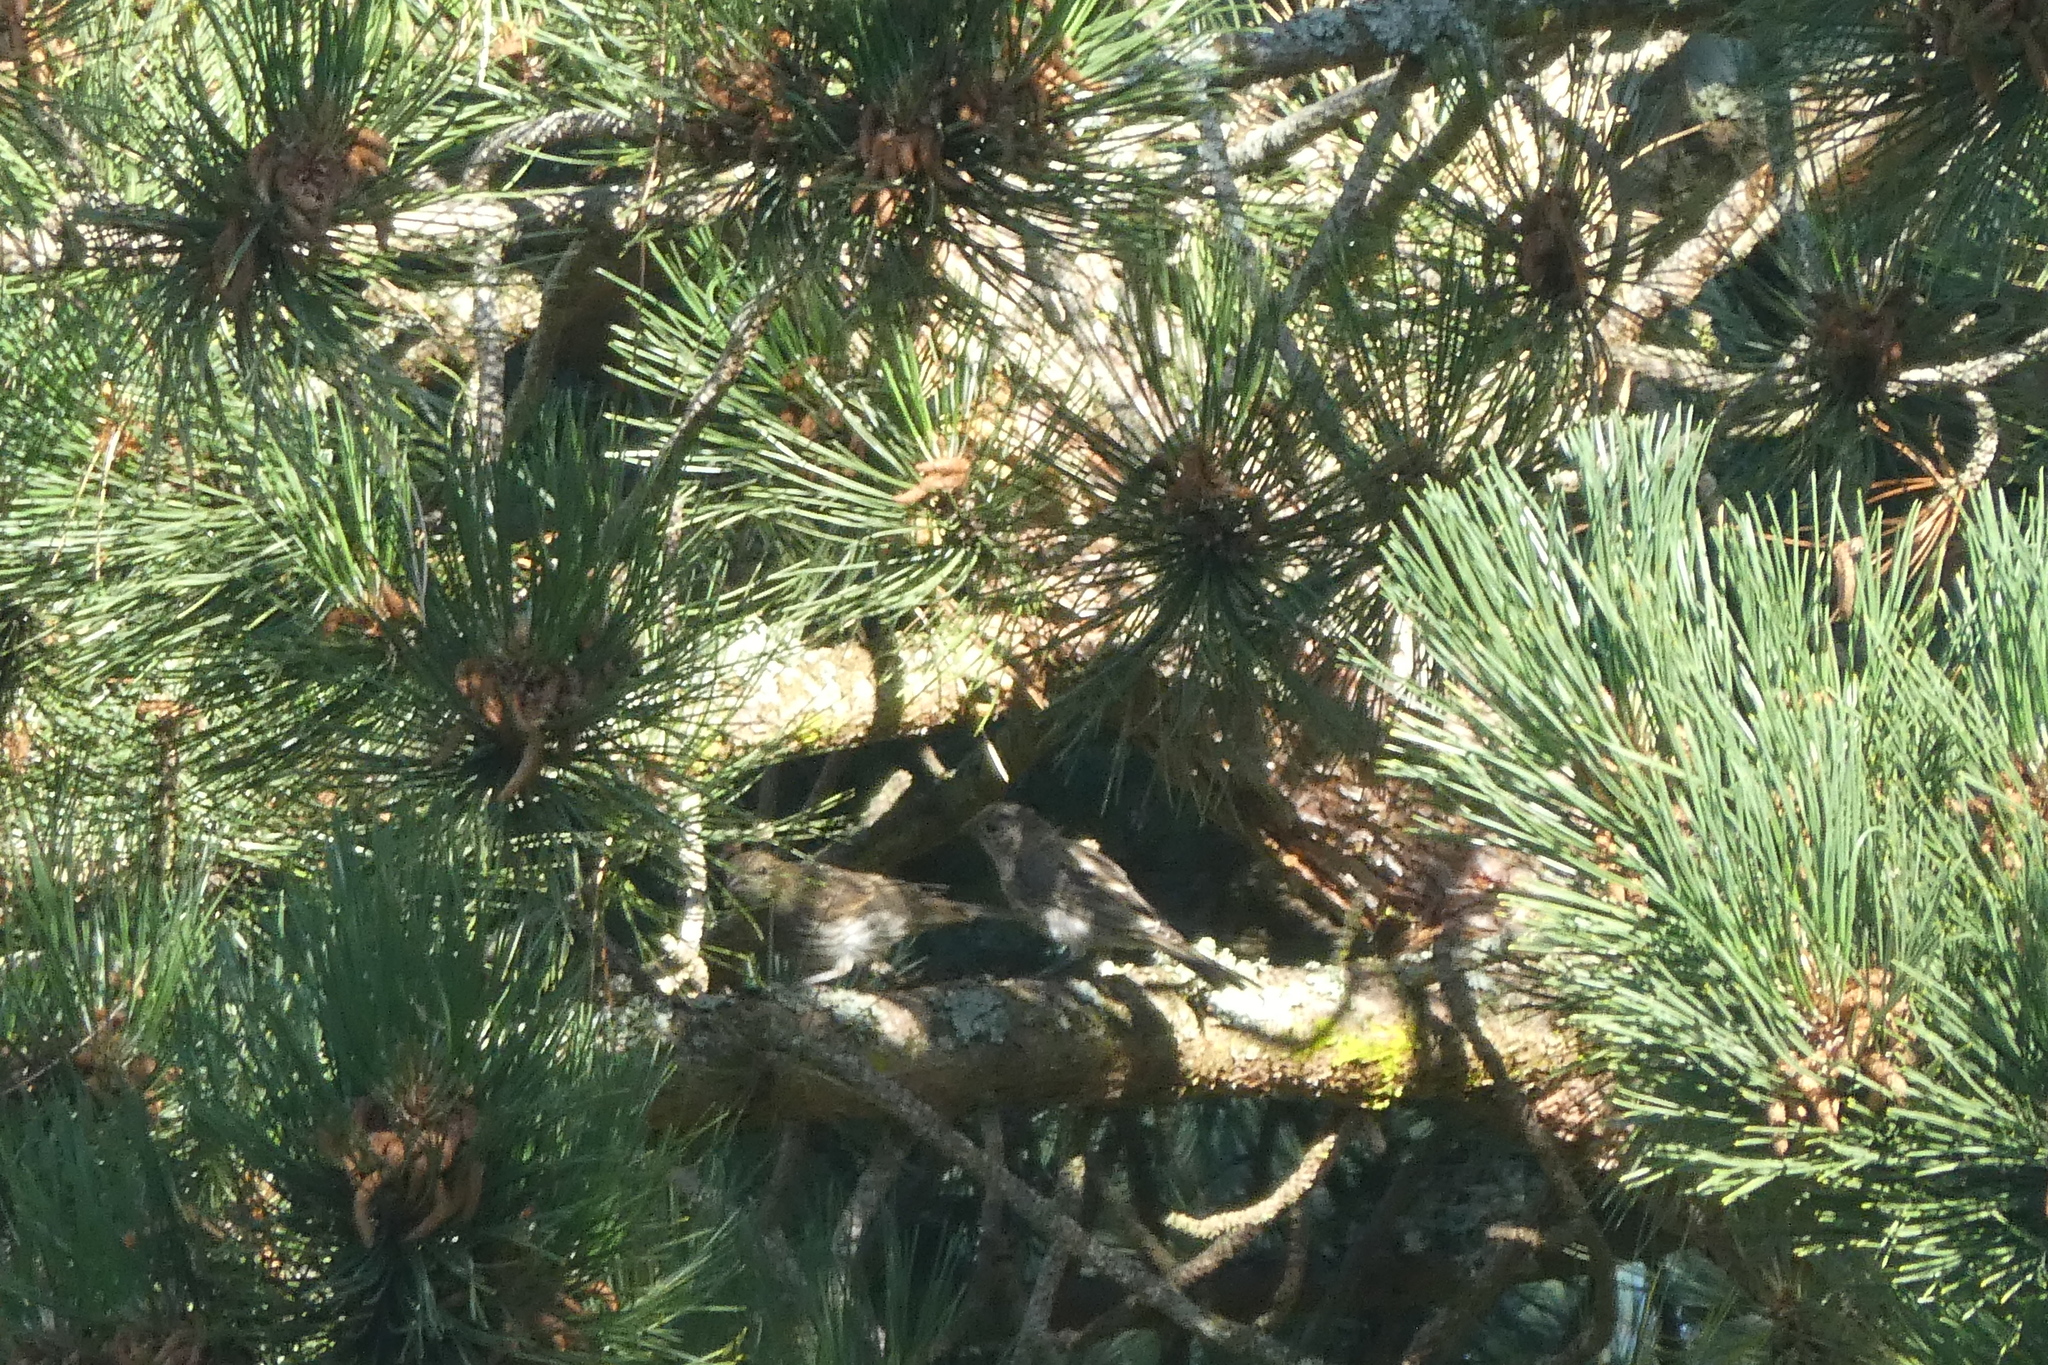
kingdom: Animalia
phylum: Chordata
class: Aves
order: Passeriformes
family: Fringillidae
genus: Haemorhous
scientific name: Haemorhous mexicanus
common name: House finch
